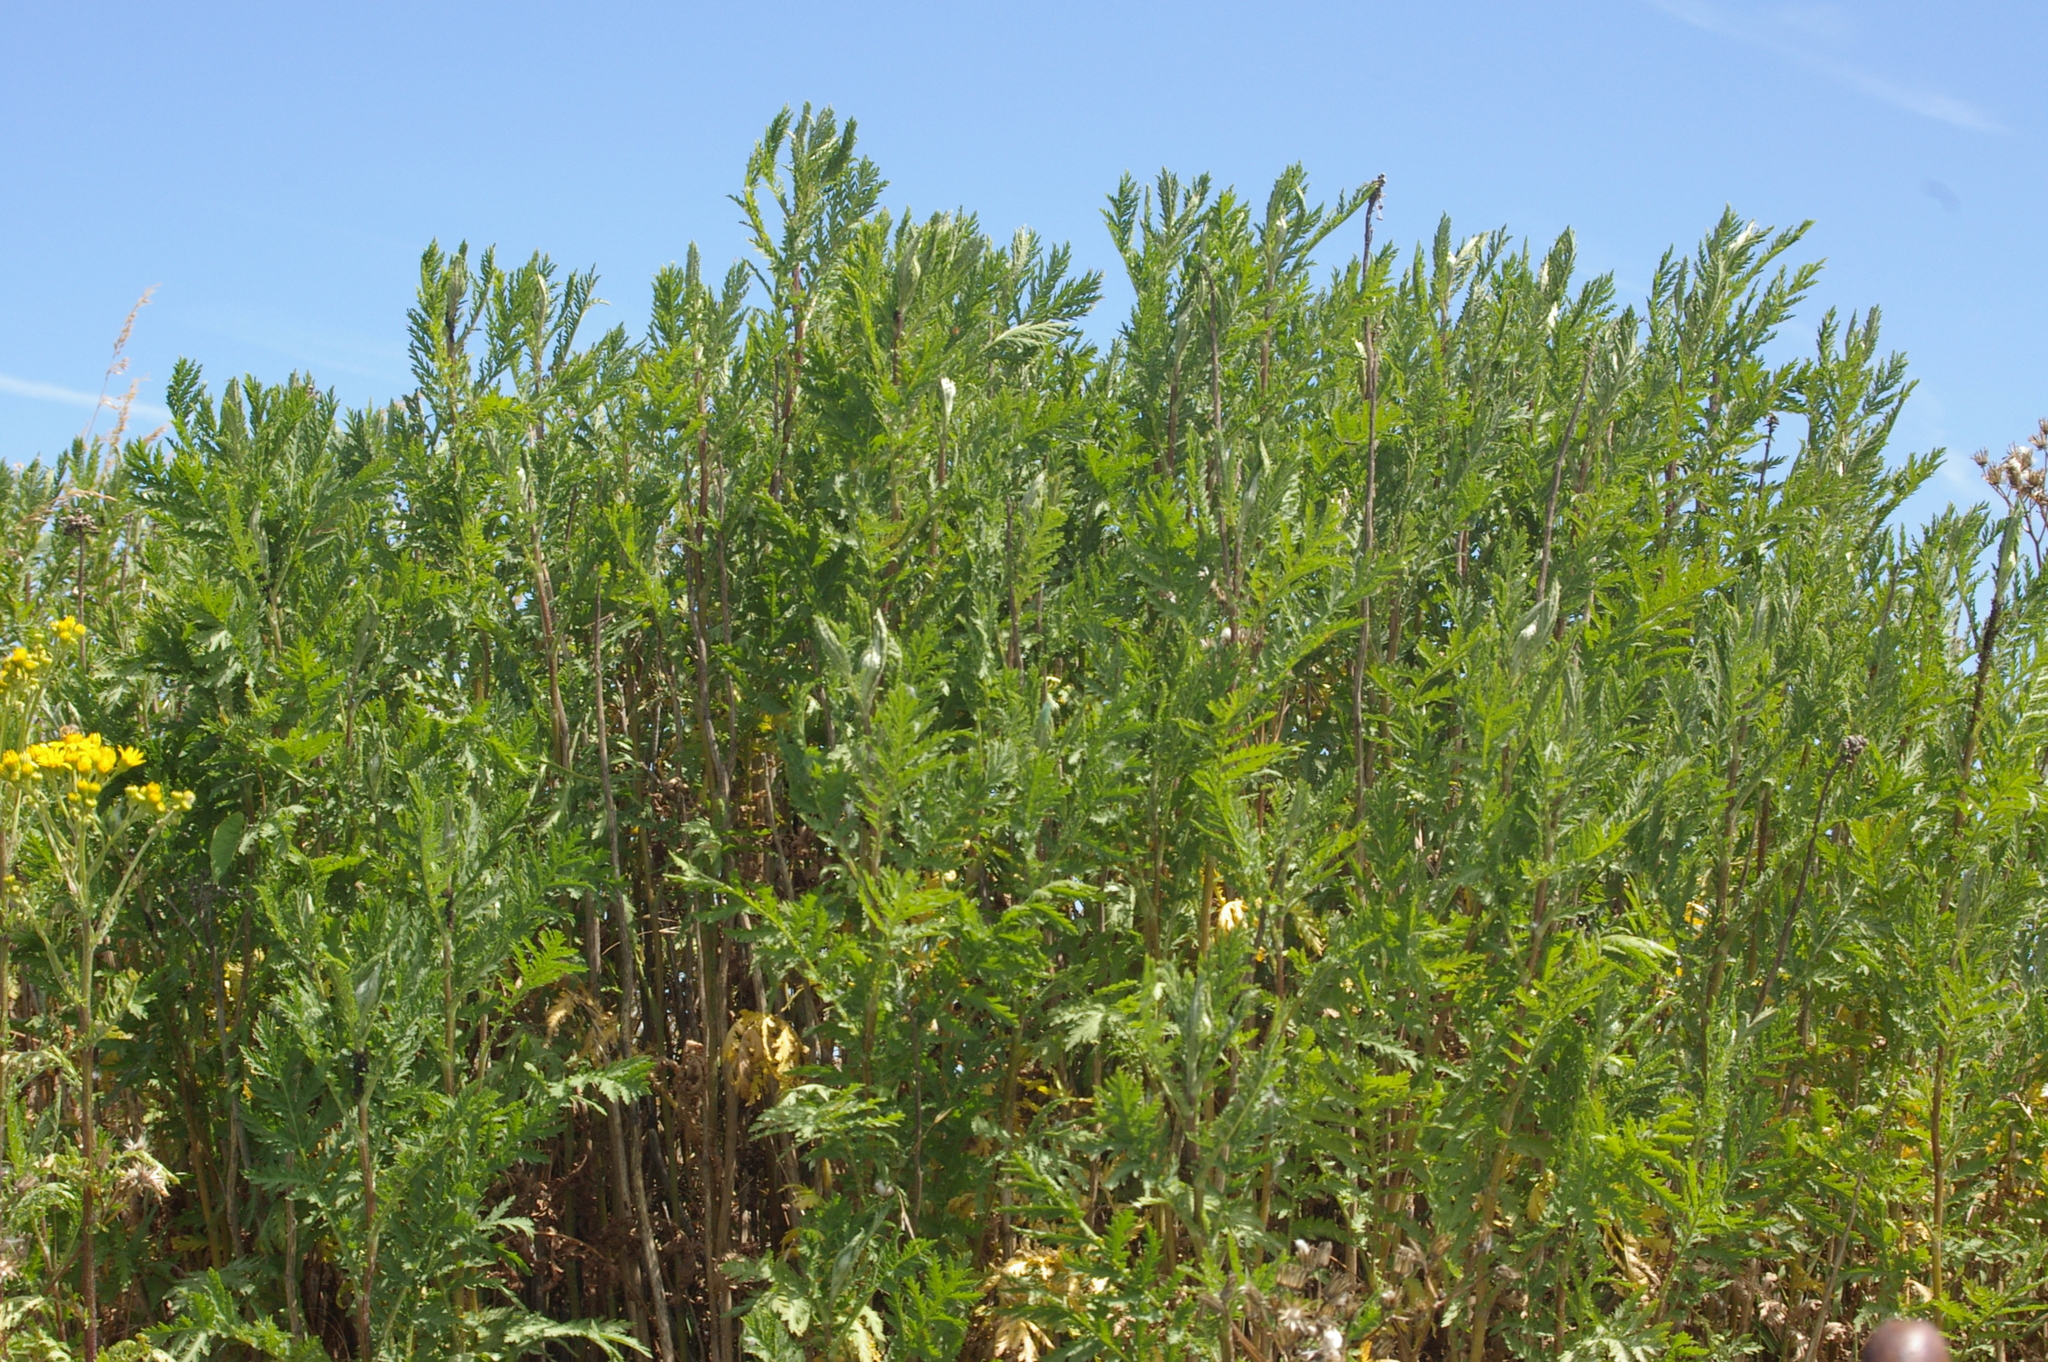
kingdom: Plantae
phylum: Tracheophyta
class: Magnoliopsida
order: Asterales
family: Asteraceae
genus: Tanacetum
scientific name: Tanacetum vulgare
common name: Common tansy
